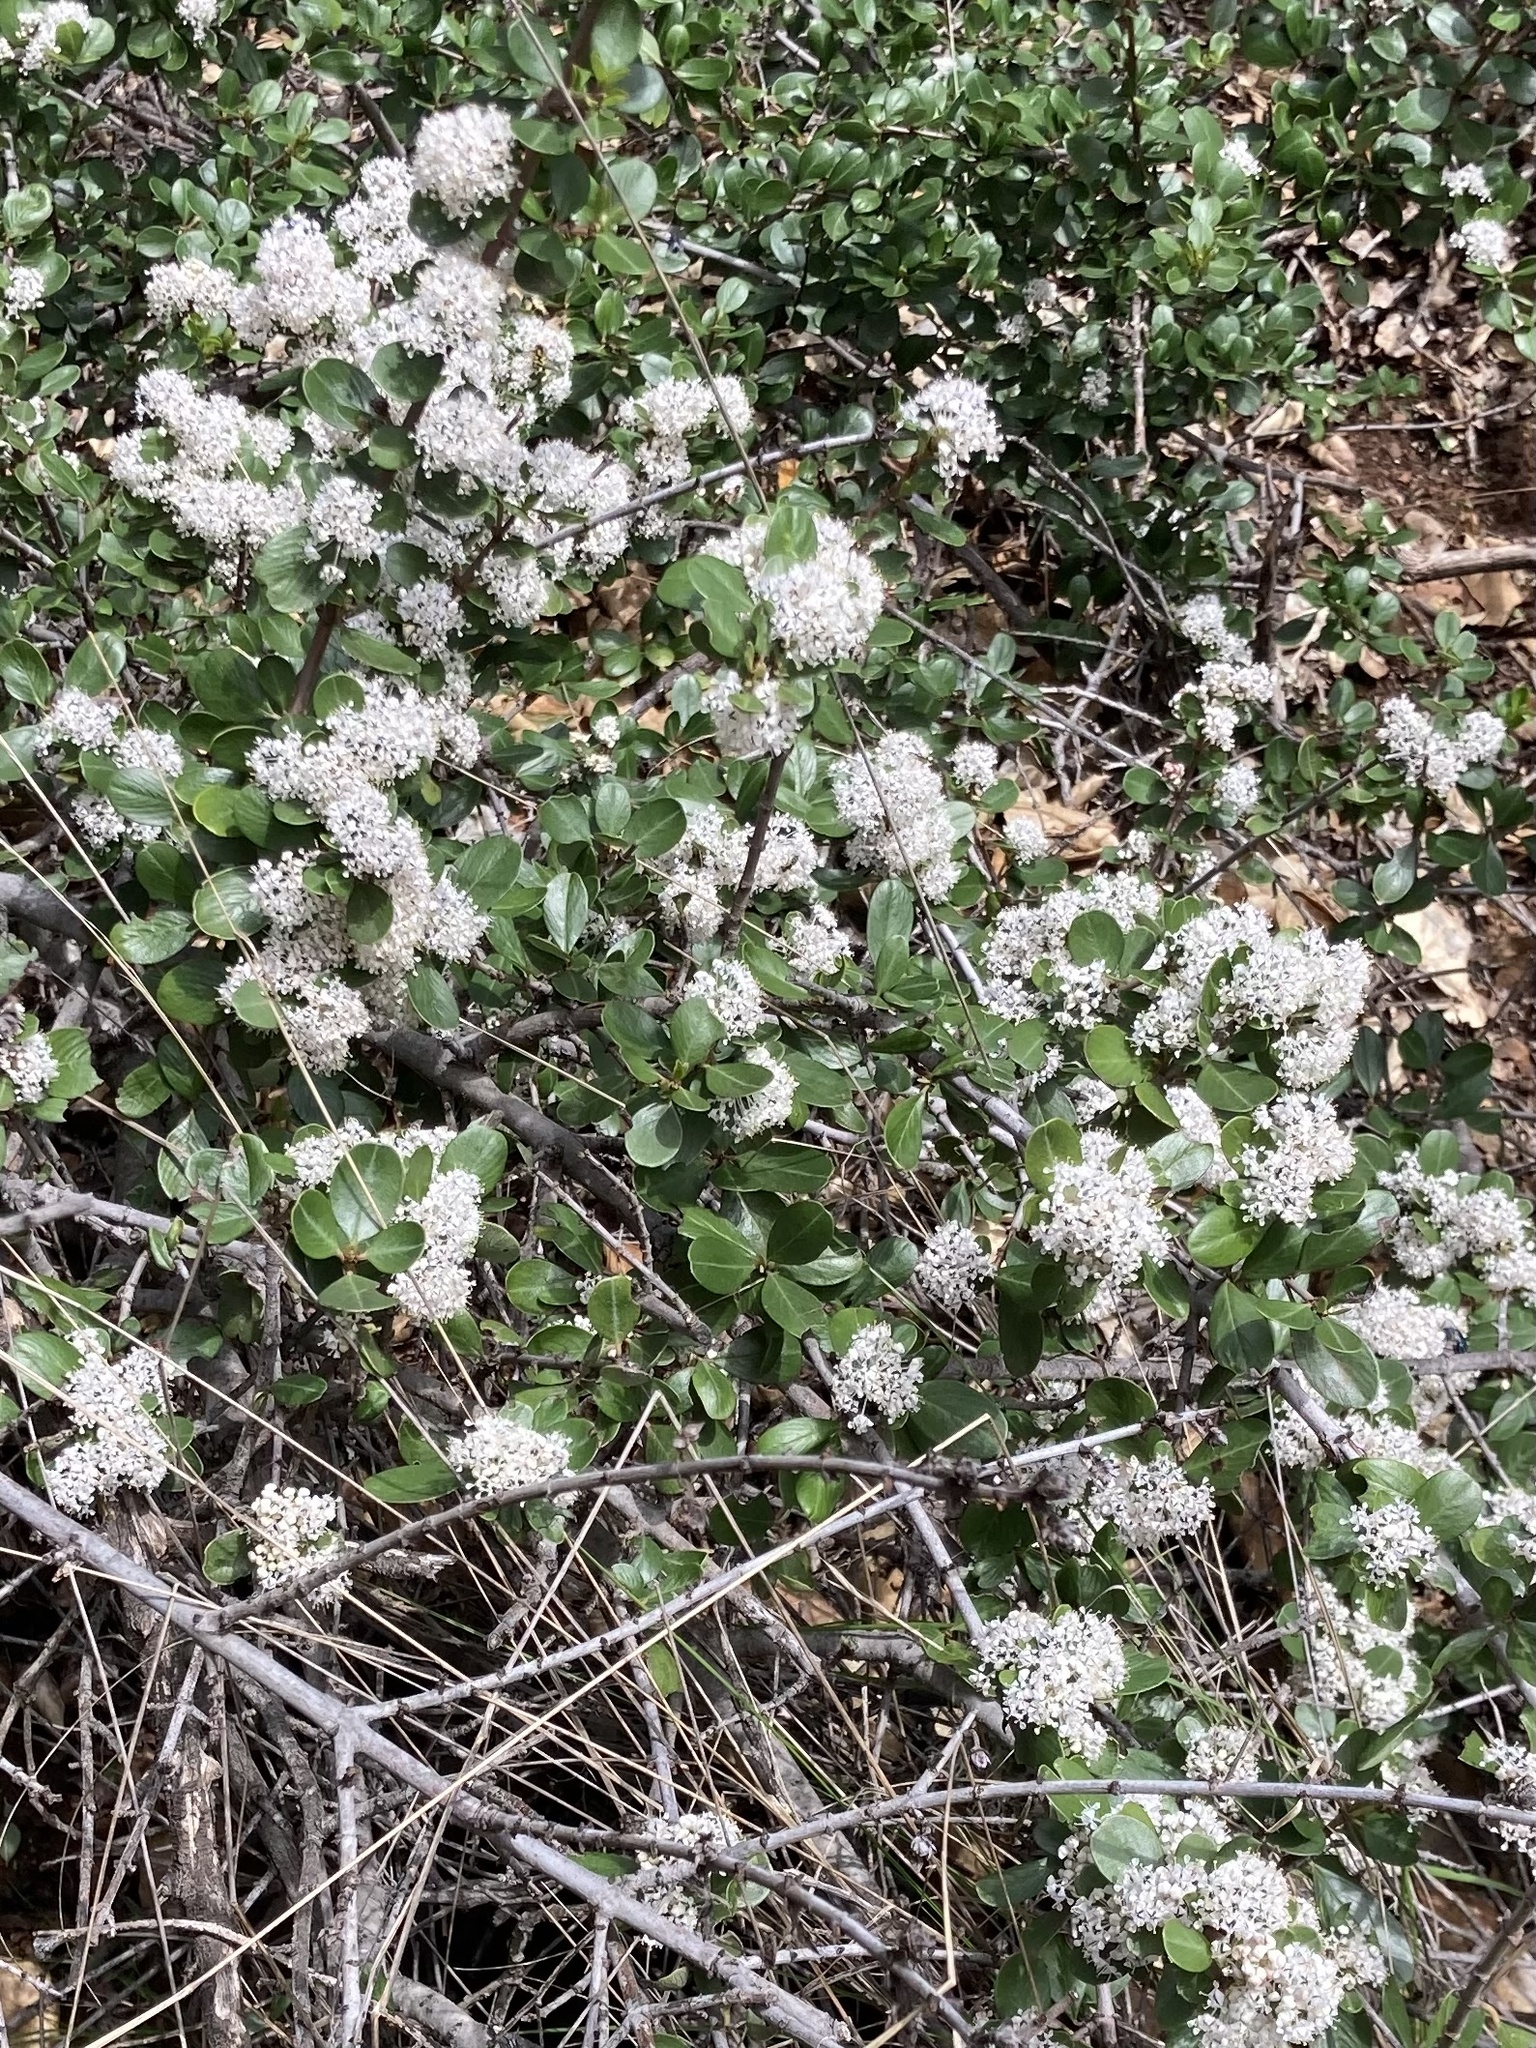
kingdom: Plantae
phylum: Tracheophyta
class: Magnoliopsida
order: Rosales
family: Rhamnaceae
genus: Ceanothus
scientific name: Ceanothus cuneatus
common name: Cuneate ceanothus
